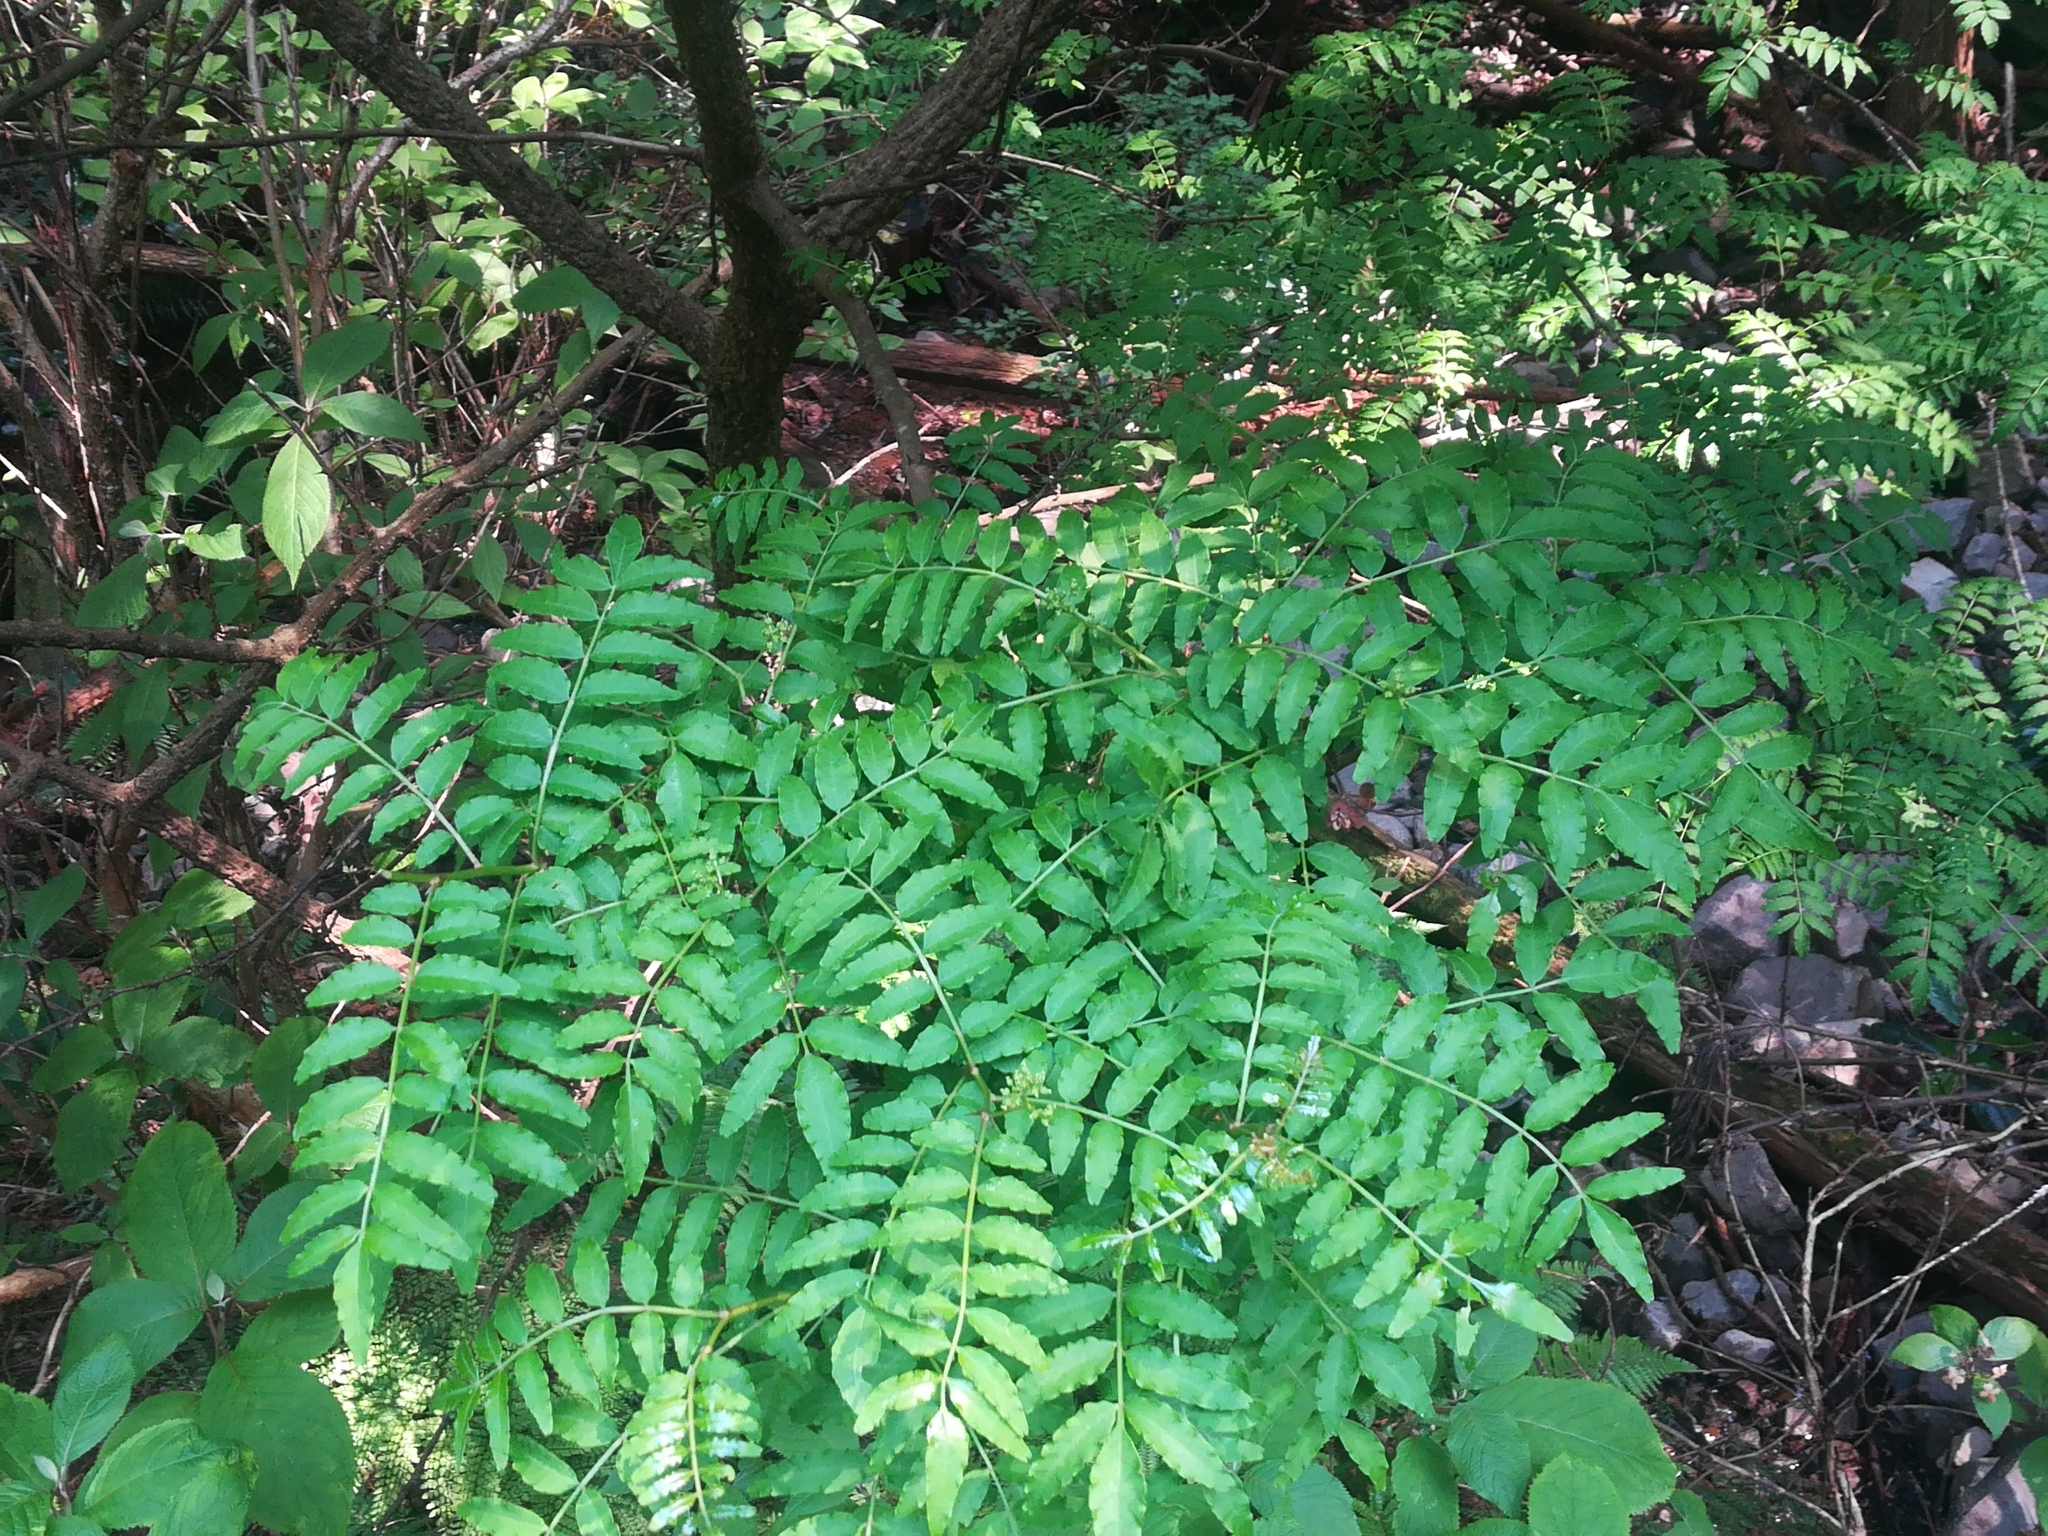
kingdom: Plantae
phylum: Tracheophyta
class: Magnoliopsida
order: Sapindales
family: Rutaceae
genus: Zanthoxylum
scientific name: Zanthoxylum piperitum
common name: Japanese-pepper
